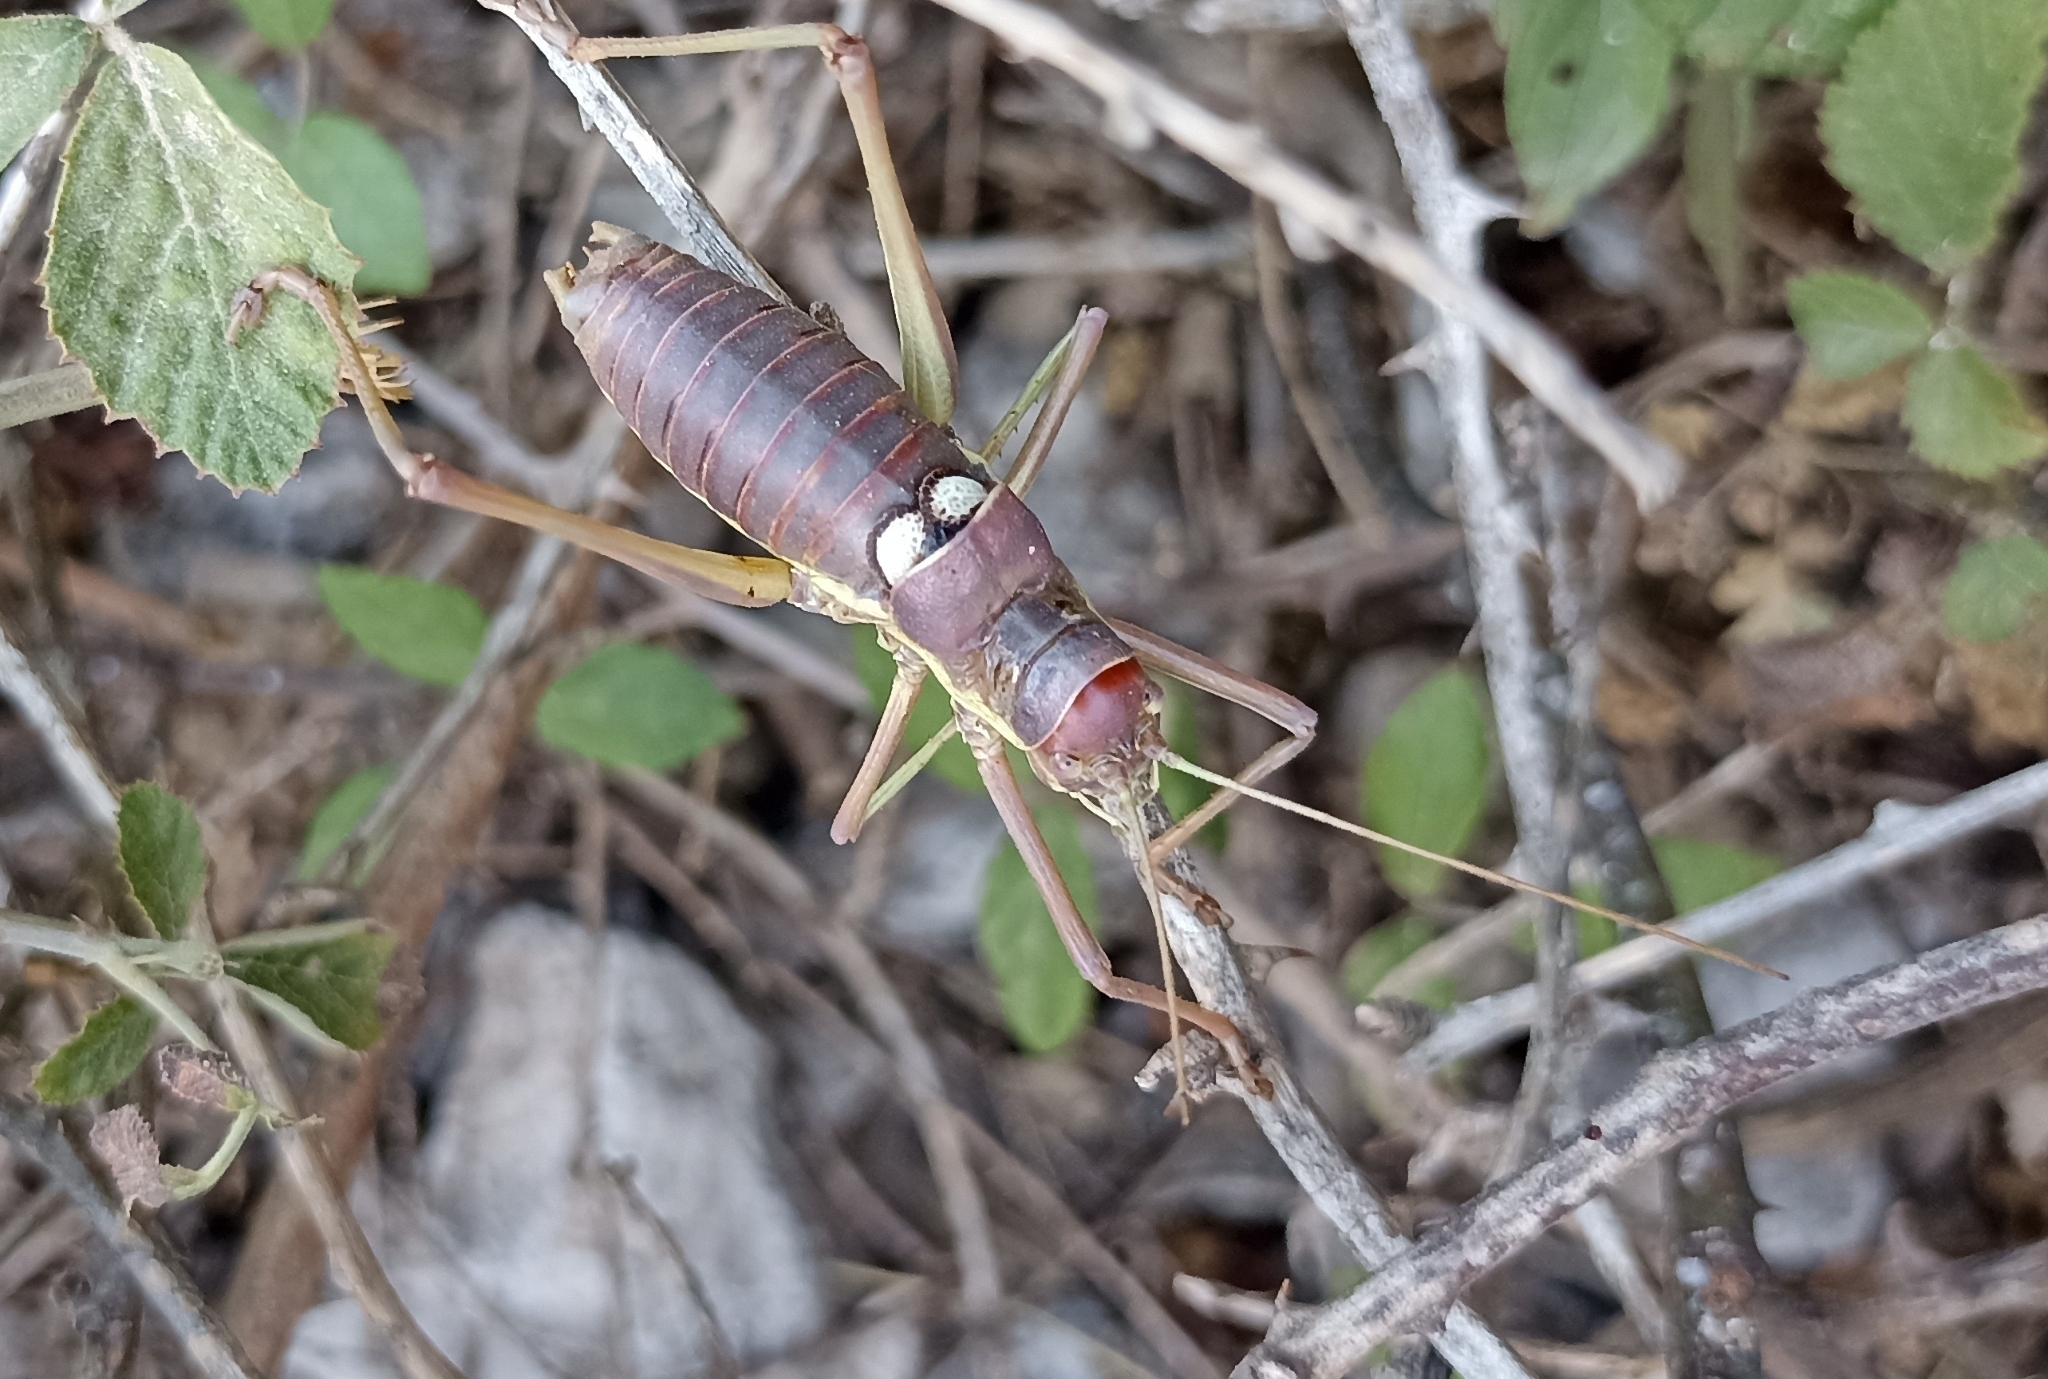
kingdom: Animalia
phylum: Arthropoda
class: Insecta
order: Orthoptera
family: Tettigoniidae
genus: Dinarippiger
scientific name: Dinarippiger discoidalis
